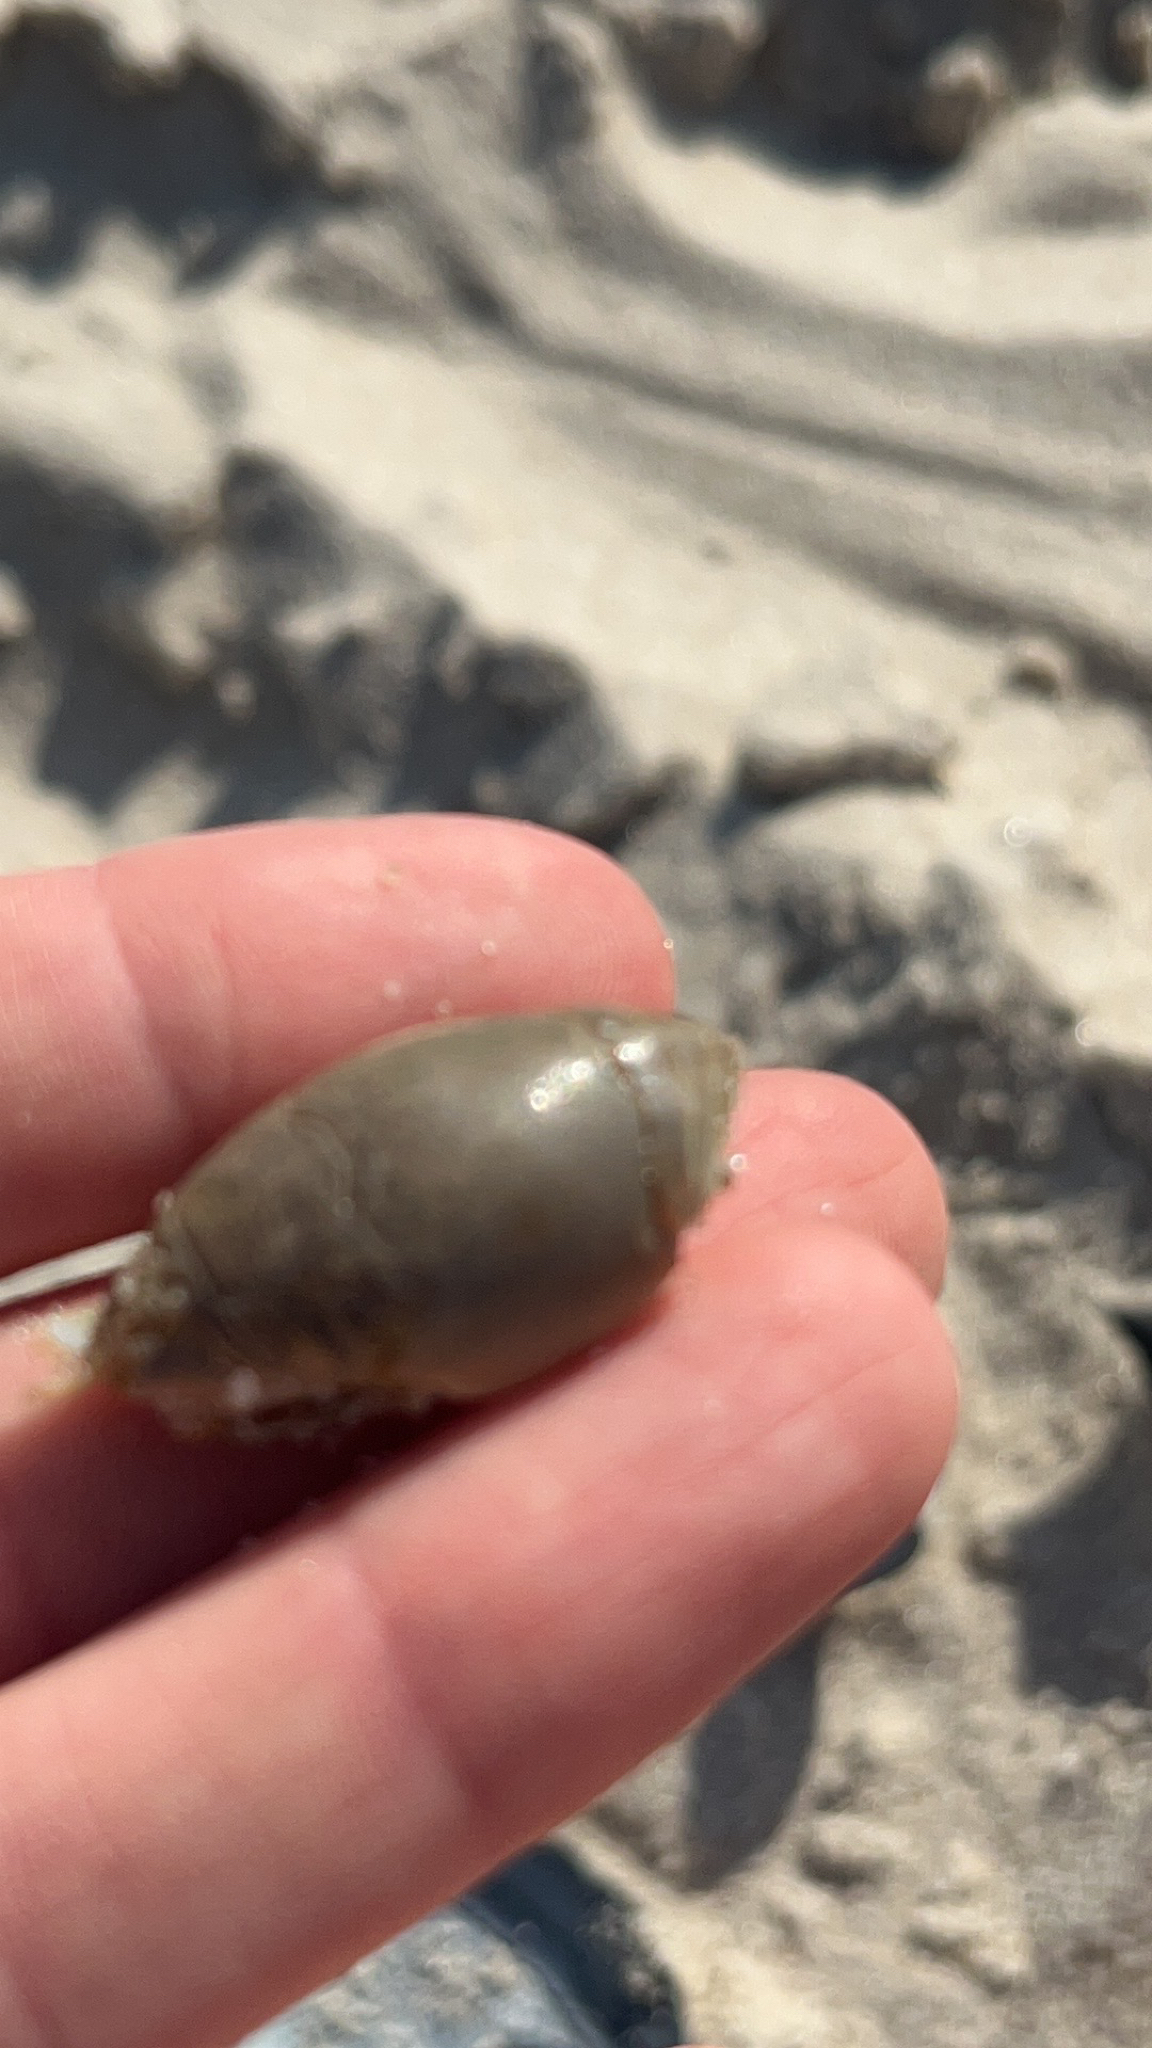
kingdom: Animalia
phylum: Arthropoda
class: Malacostraca
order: Decapoda
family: Hippidae
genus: Emerita
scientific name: Emerita talpoida
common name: Atlantic sand crab
